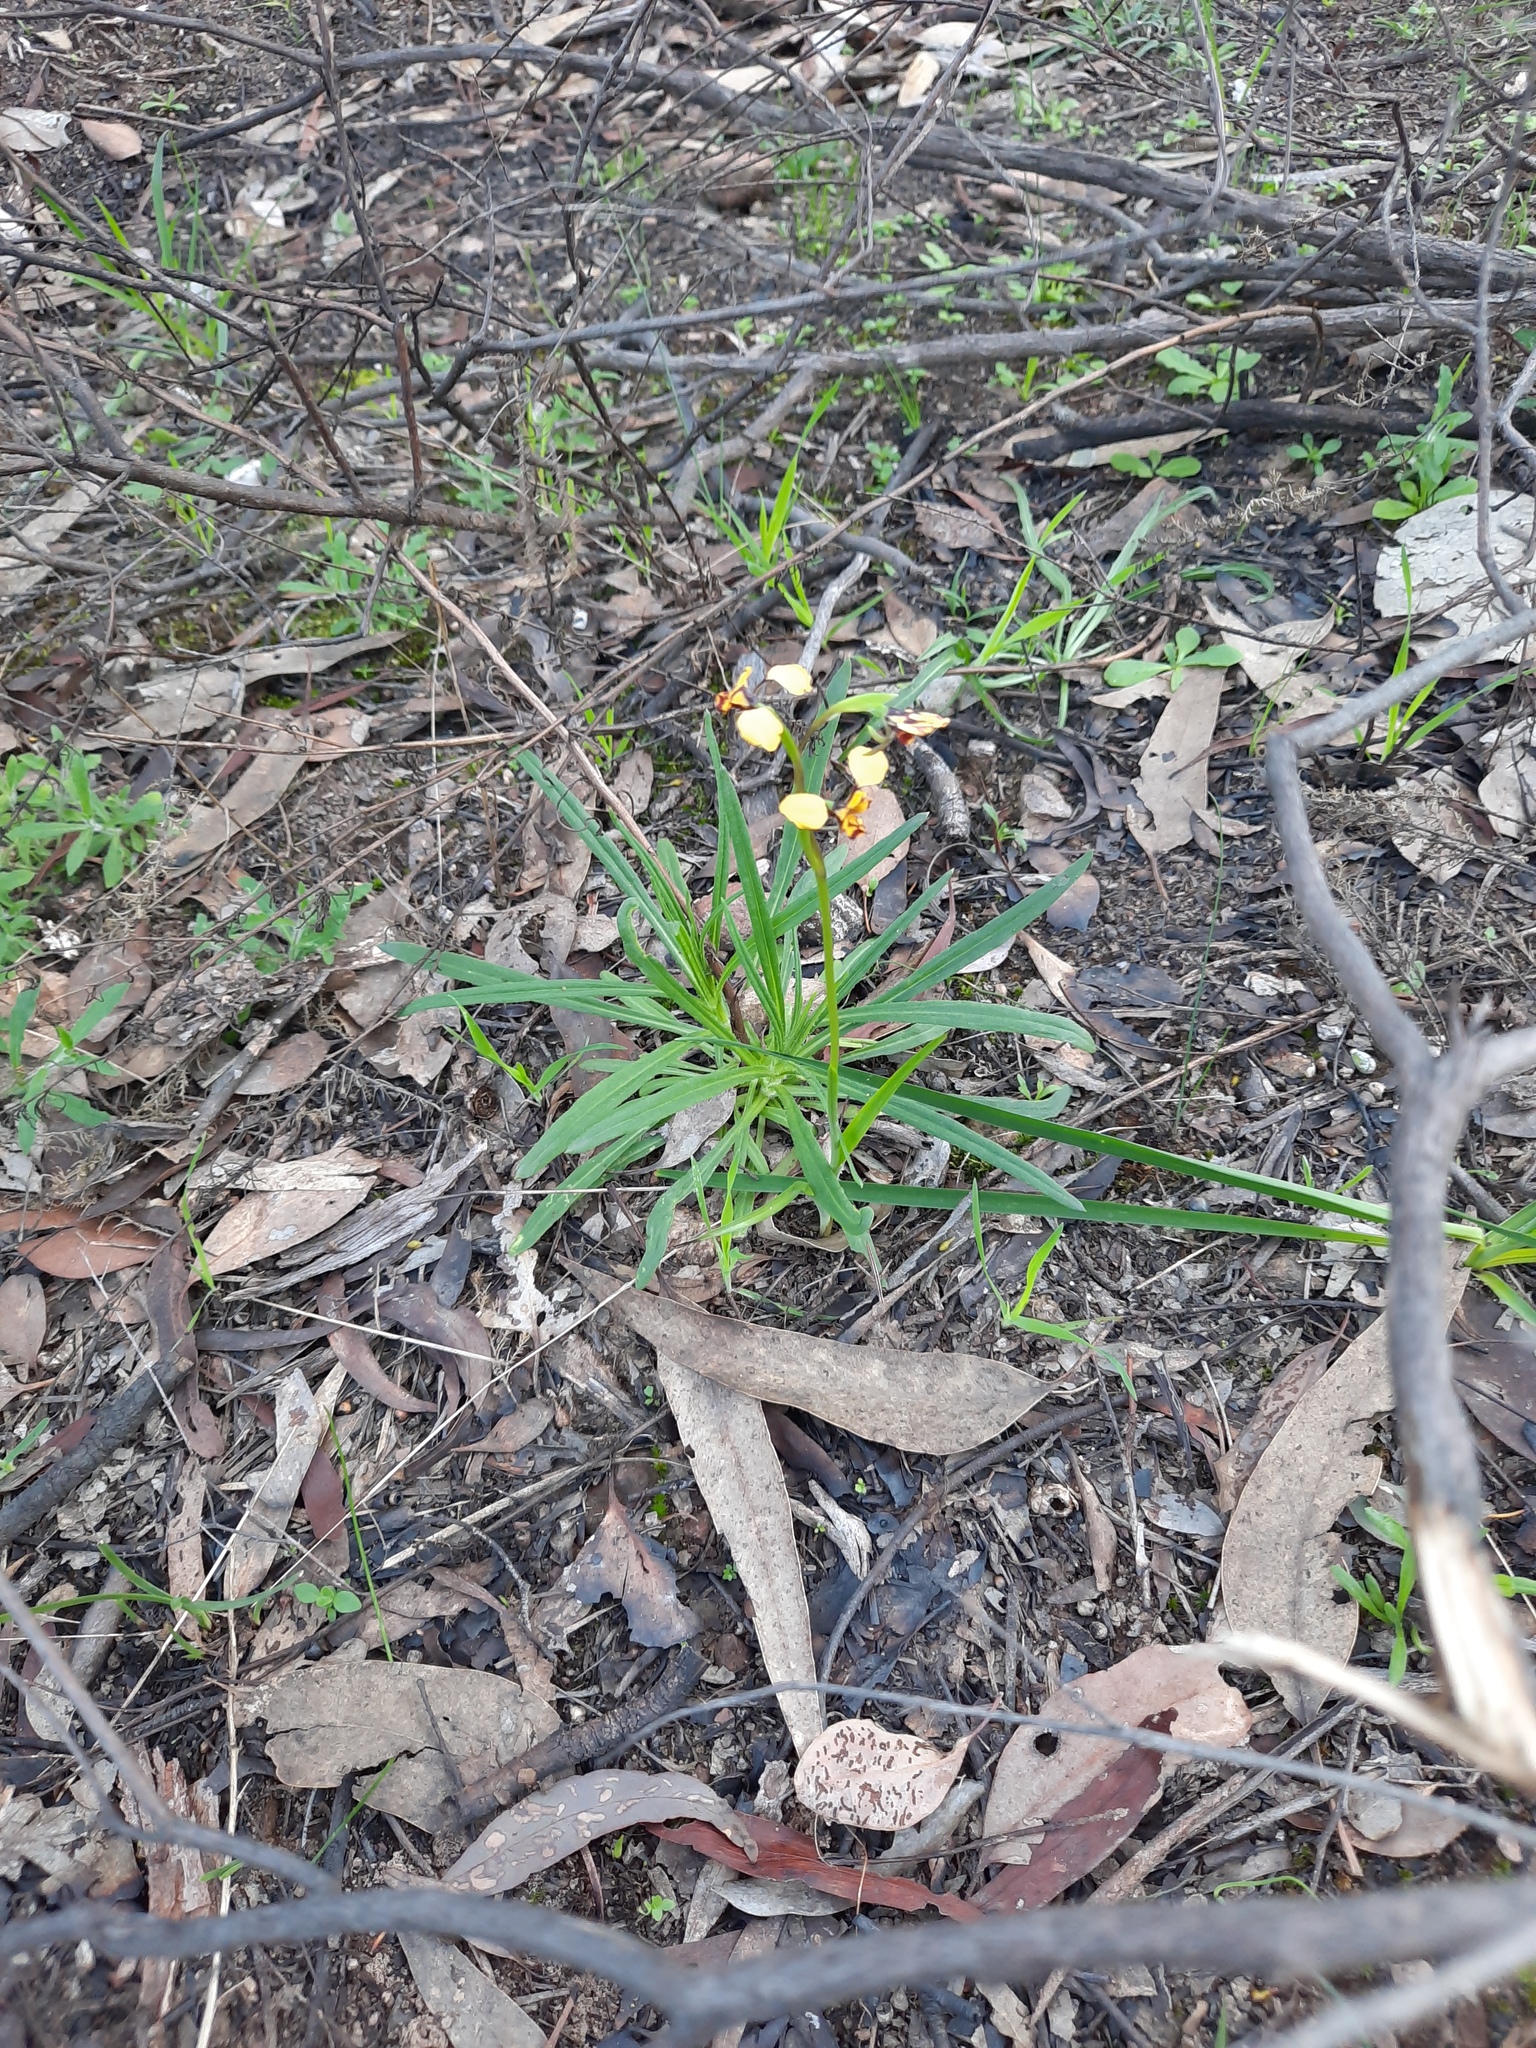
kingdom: Plantae
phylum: Tracheophyta
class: Liliopsida
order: Asparagales
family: Orchidaceae
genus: Diuris
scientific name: Diuris pardina
